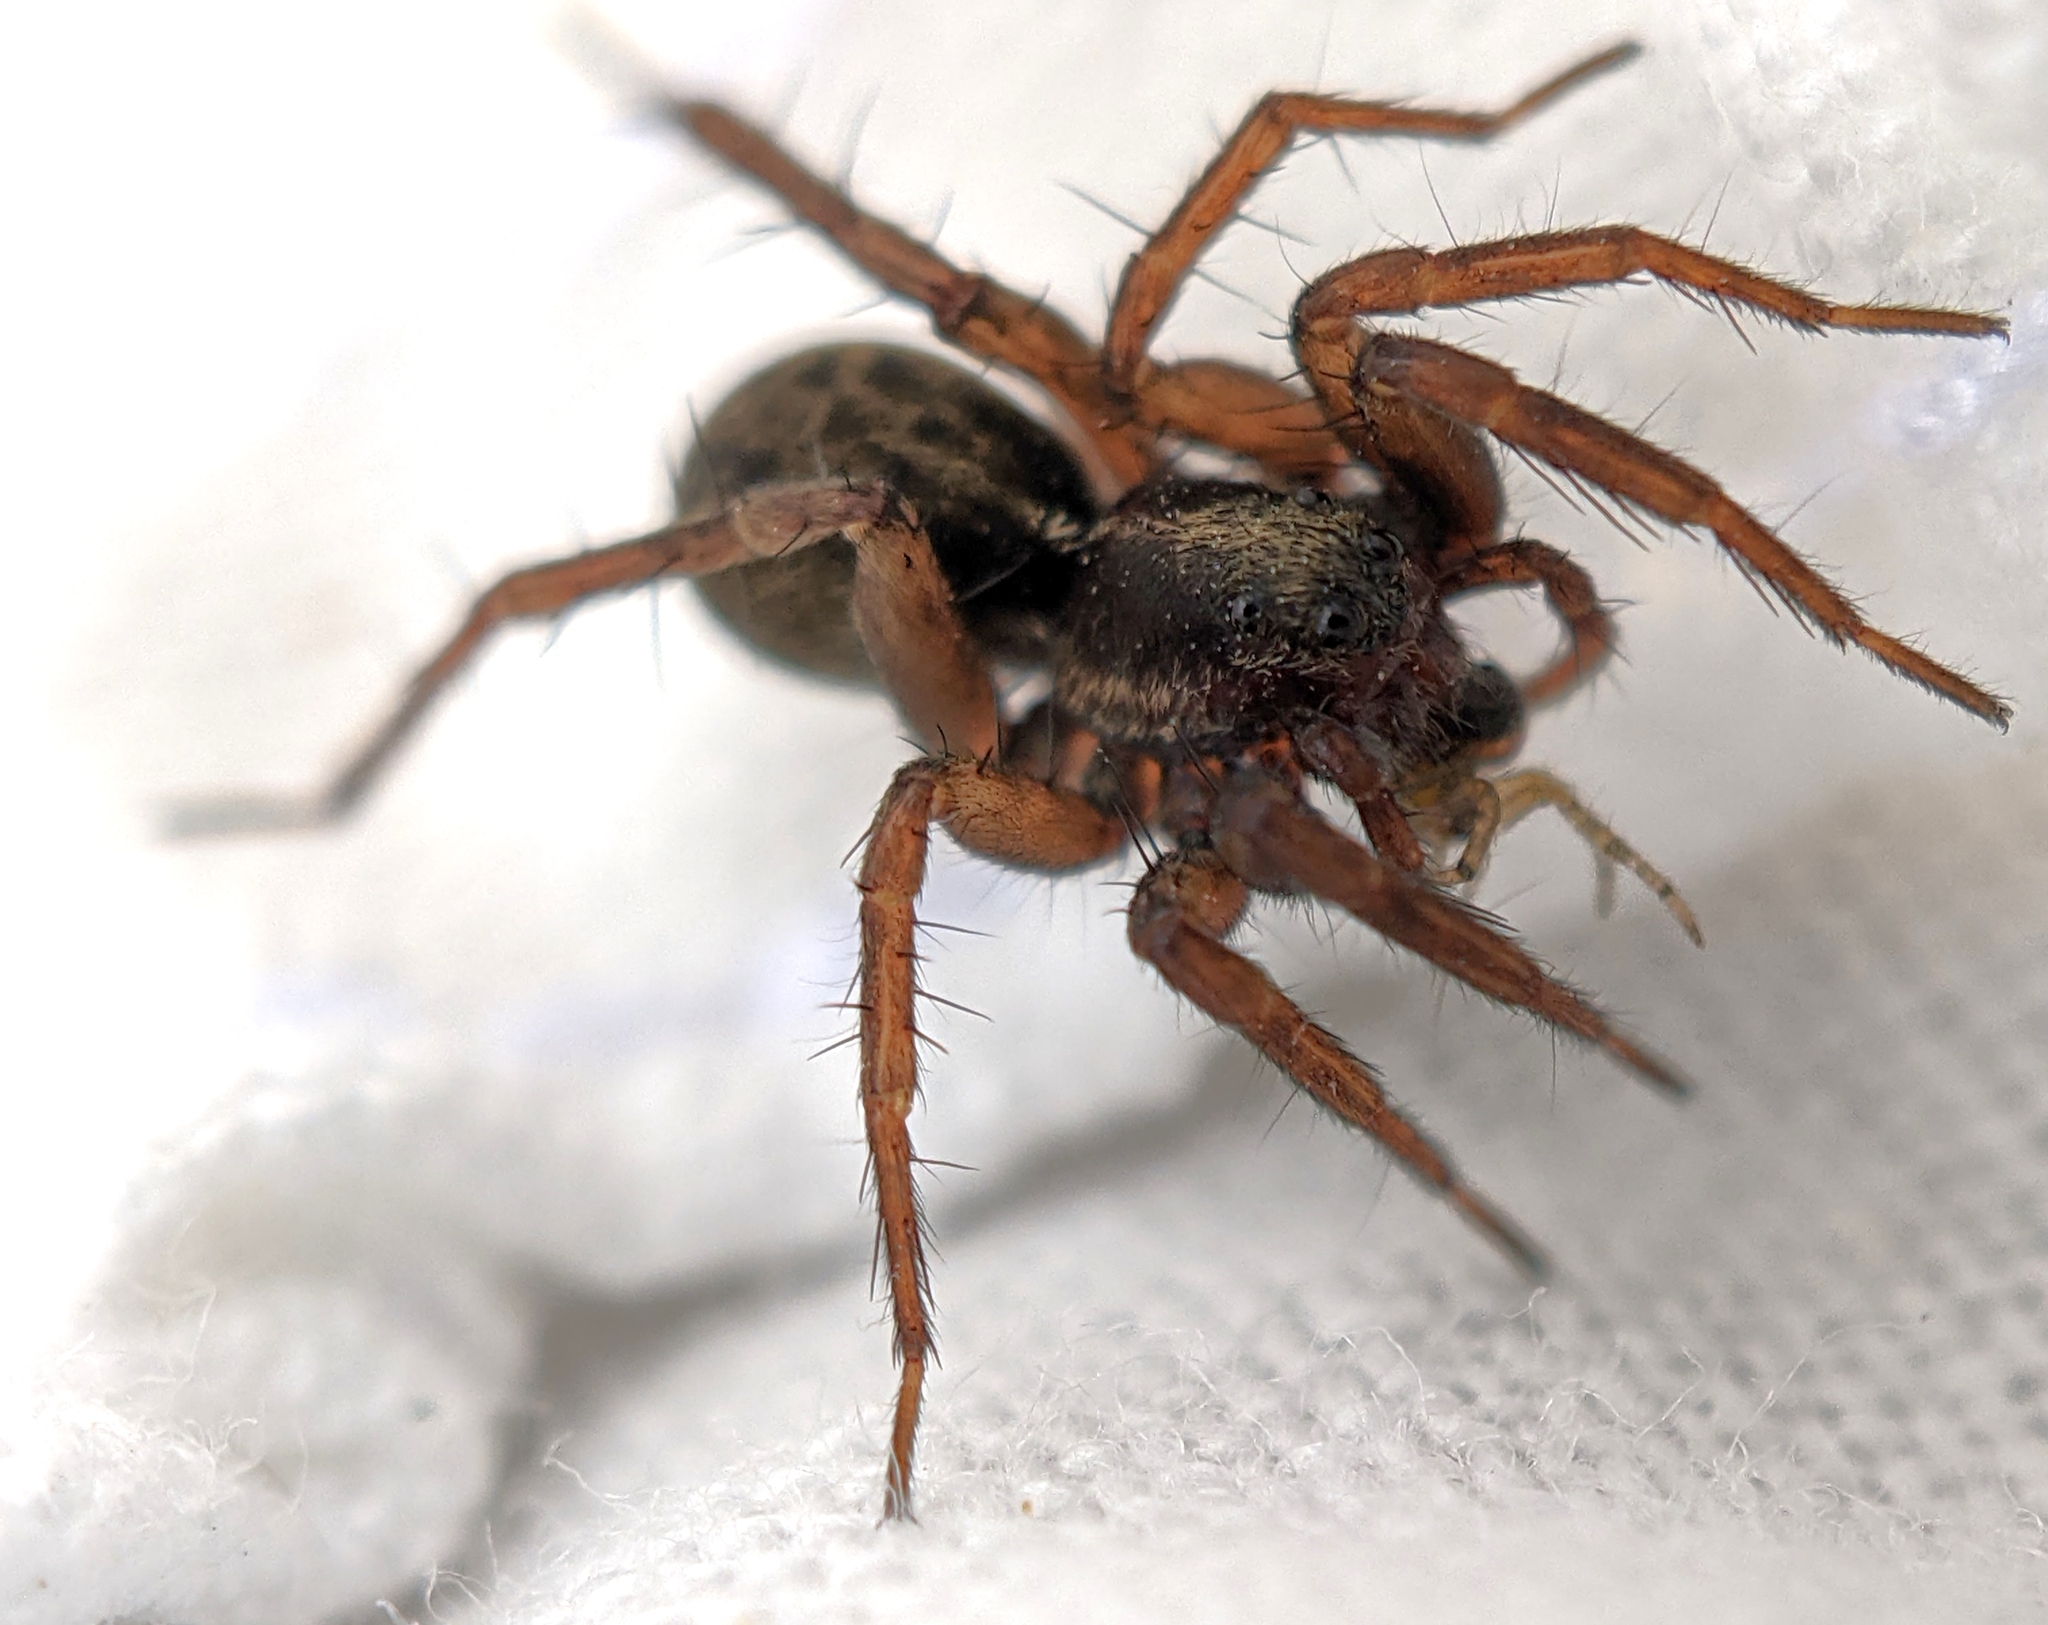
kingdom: Animalia
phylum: Arthropoda
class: Arachnida
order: Araneae
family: Lycosidae
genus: Pardosa
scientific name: Pardosa
